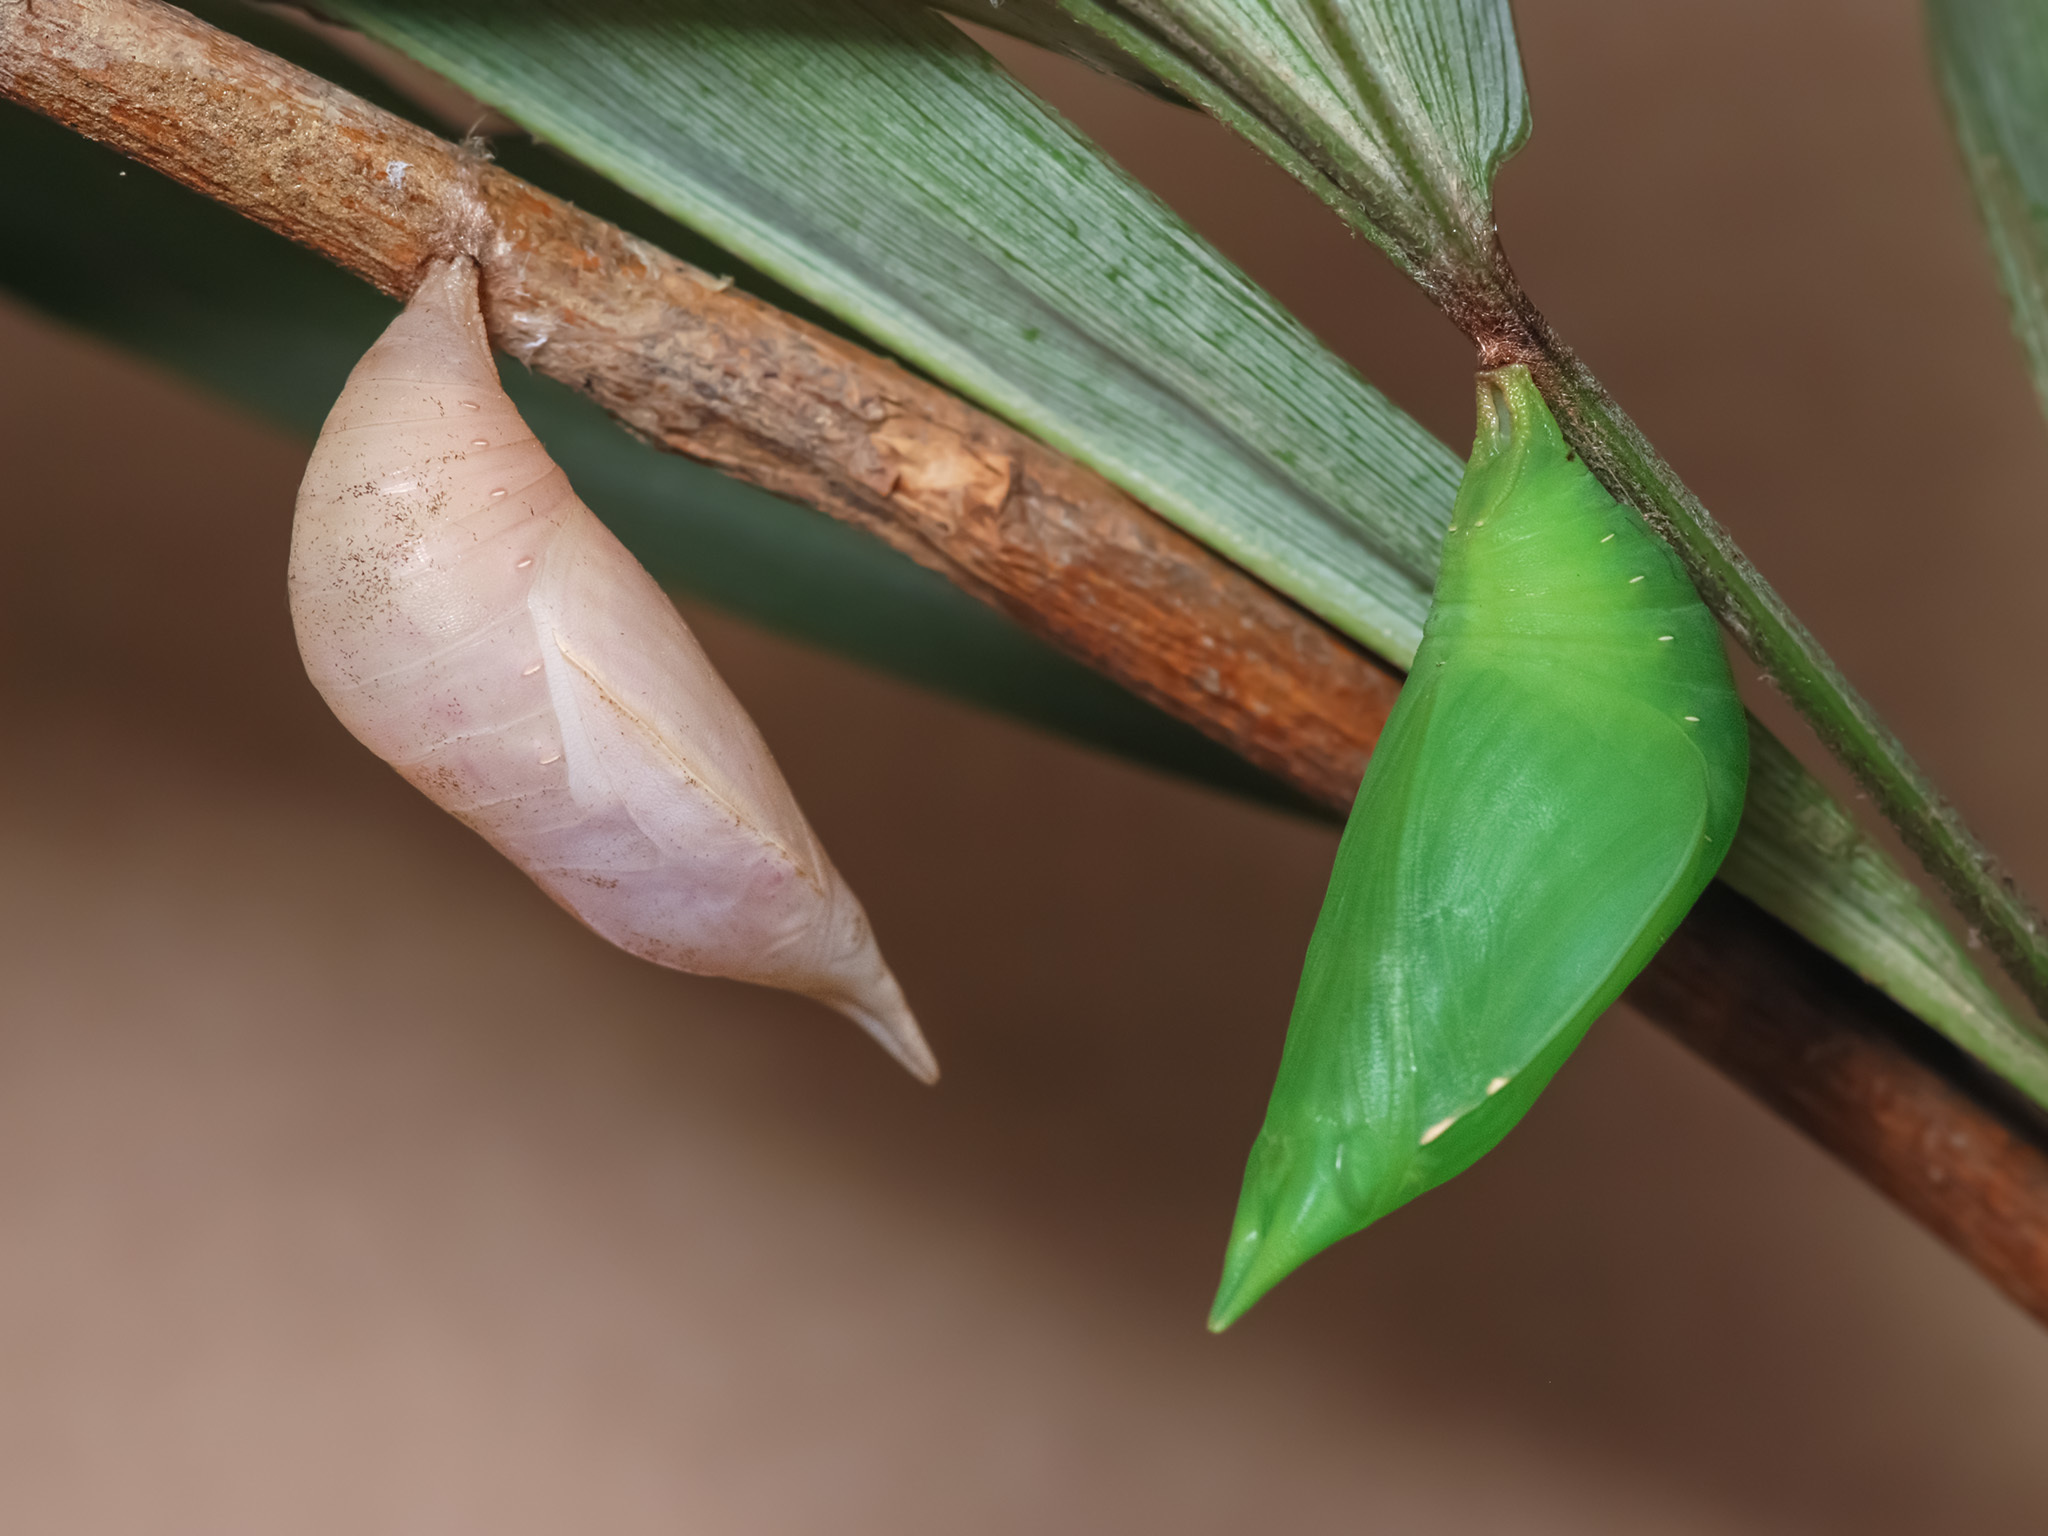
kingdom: Animalia
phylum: Arthropoda
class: Insecta
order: Lepidoptera
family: Nymphalidae
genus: Discophora
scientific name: Discophora timora
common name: Great duffer
